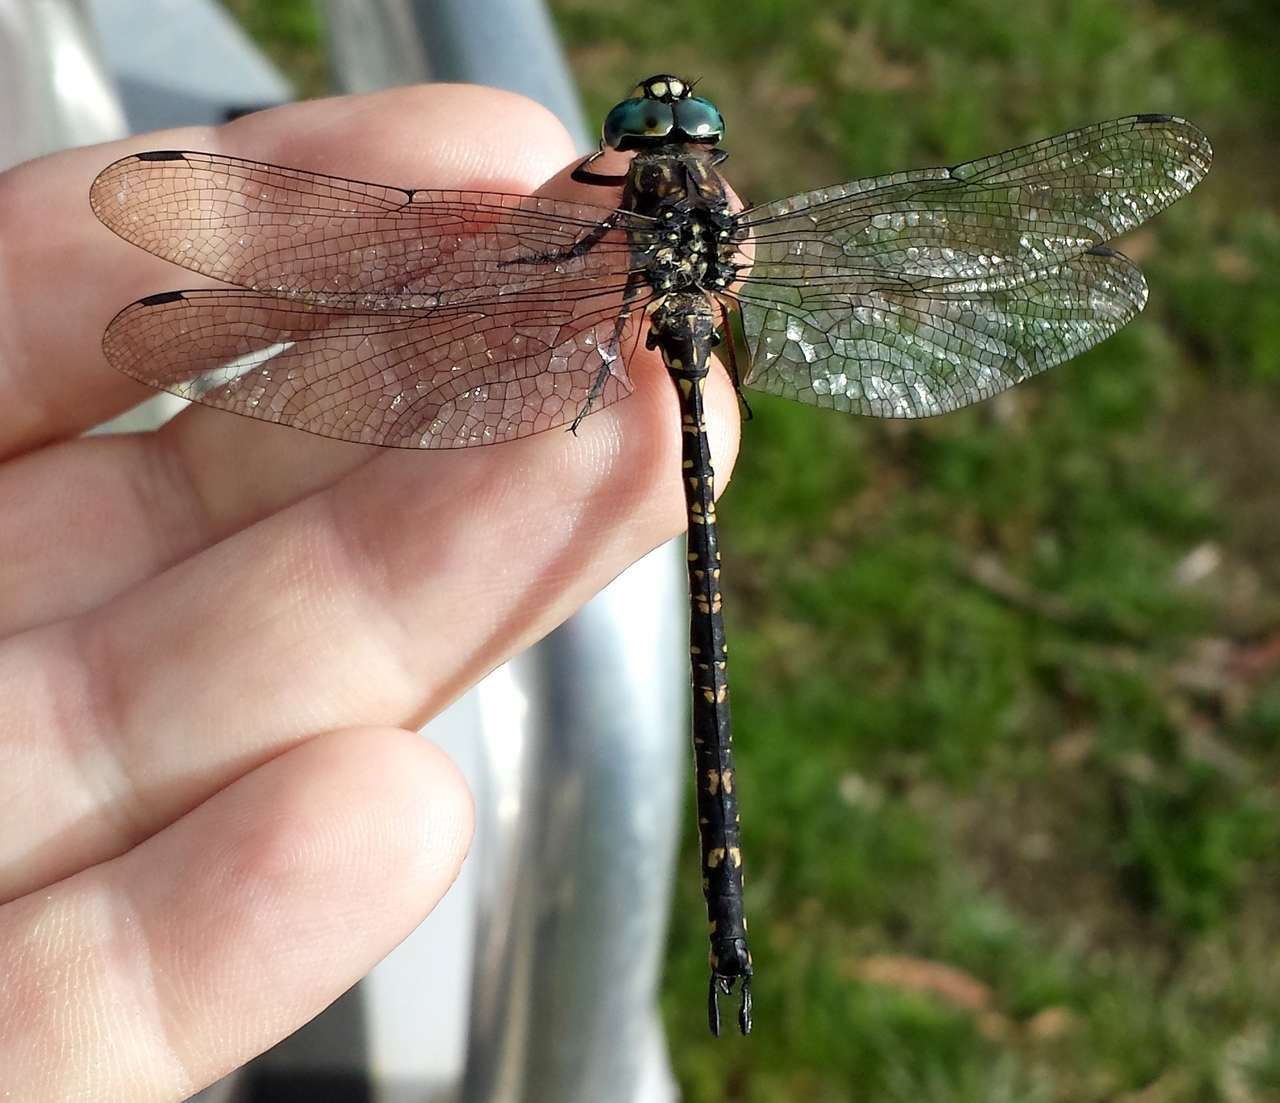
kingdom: Animalia
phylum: Arthropoda
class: Insecta
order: Odonata
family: Aeshnidae
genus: Austroaeschna
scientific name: Austroaeschna multipunctata
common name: Multi-spotted darner
